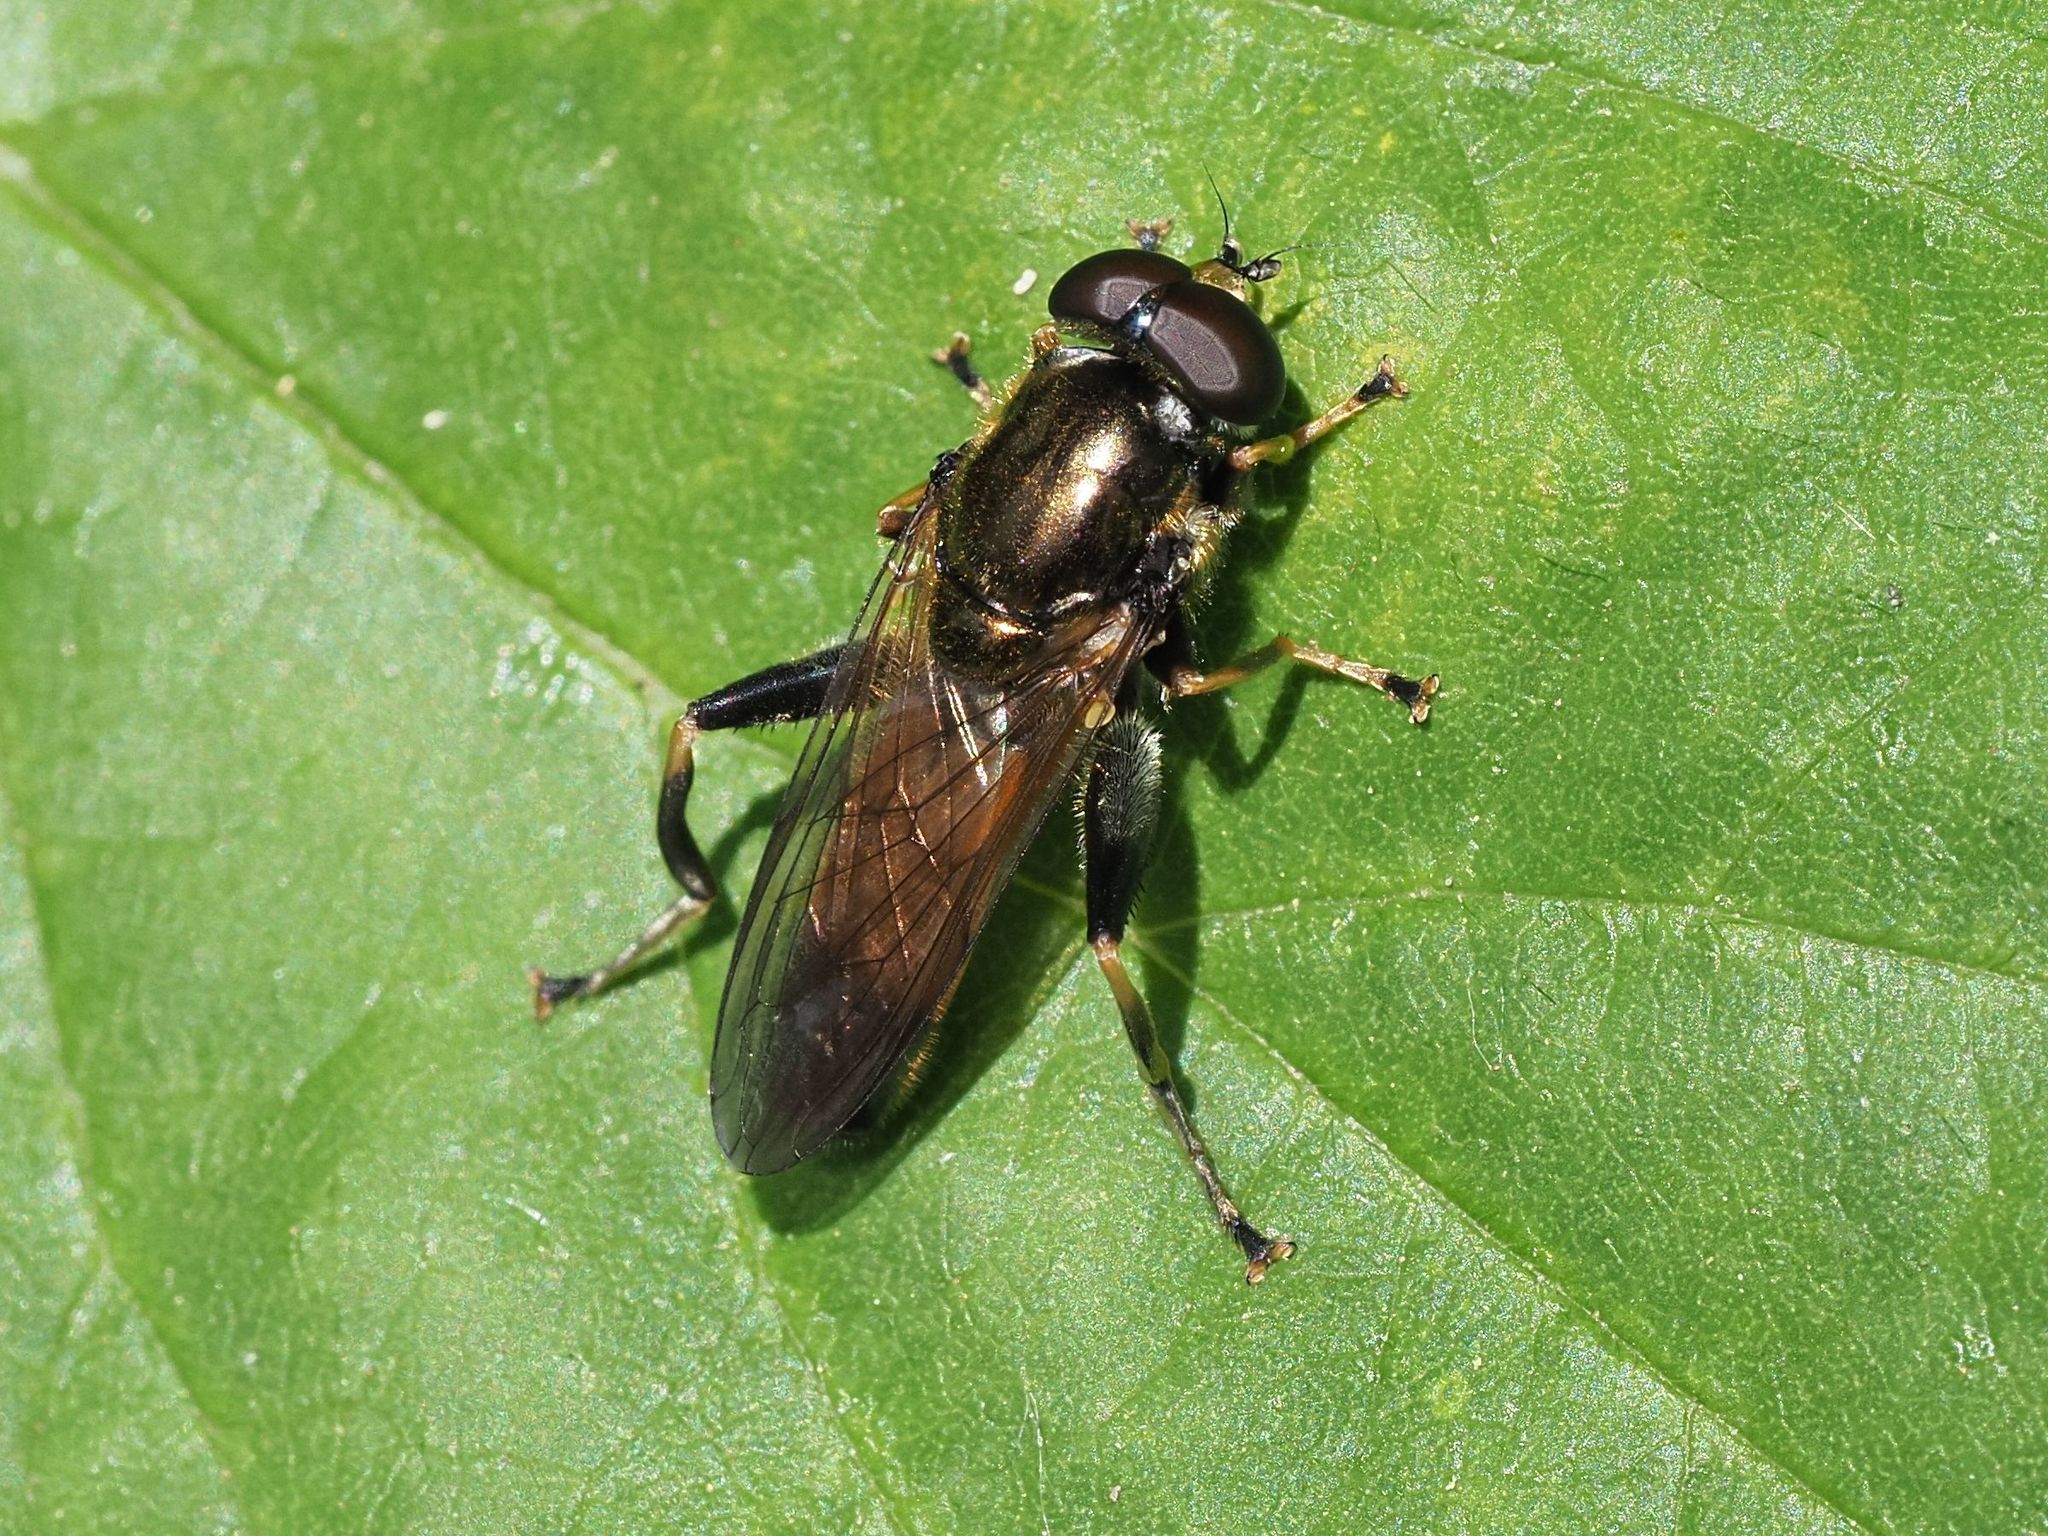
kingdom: Animalia
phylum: Arthropoda
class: Insecta
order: Diptera
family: Syrphidae
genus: Xylota
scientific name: Xylota segnis
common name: Brown-toed forest fly
